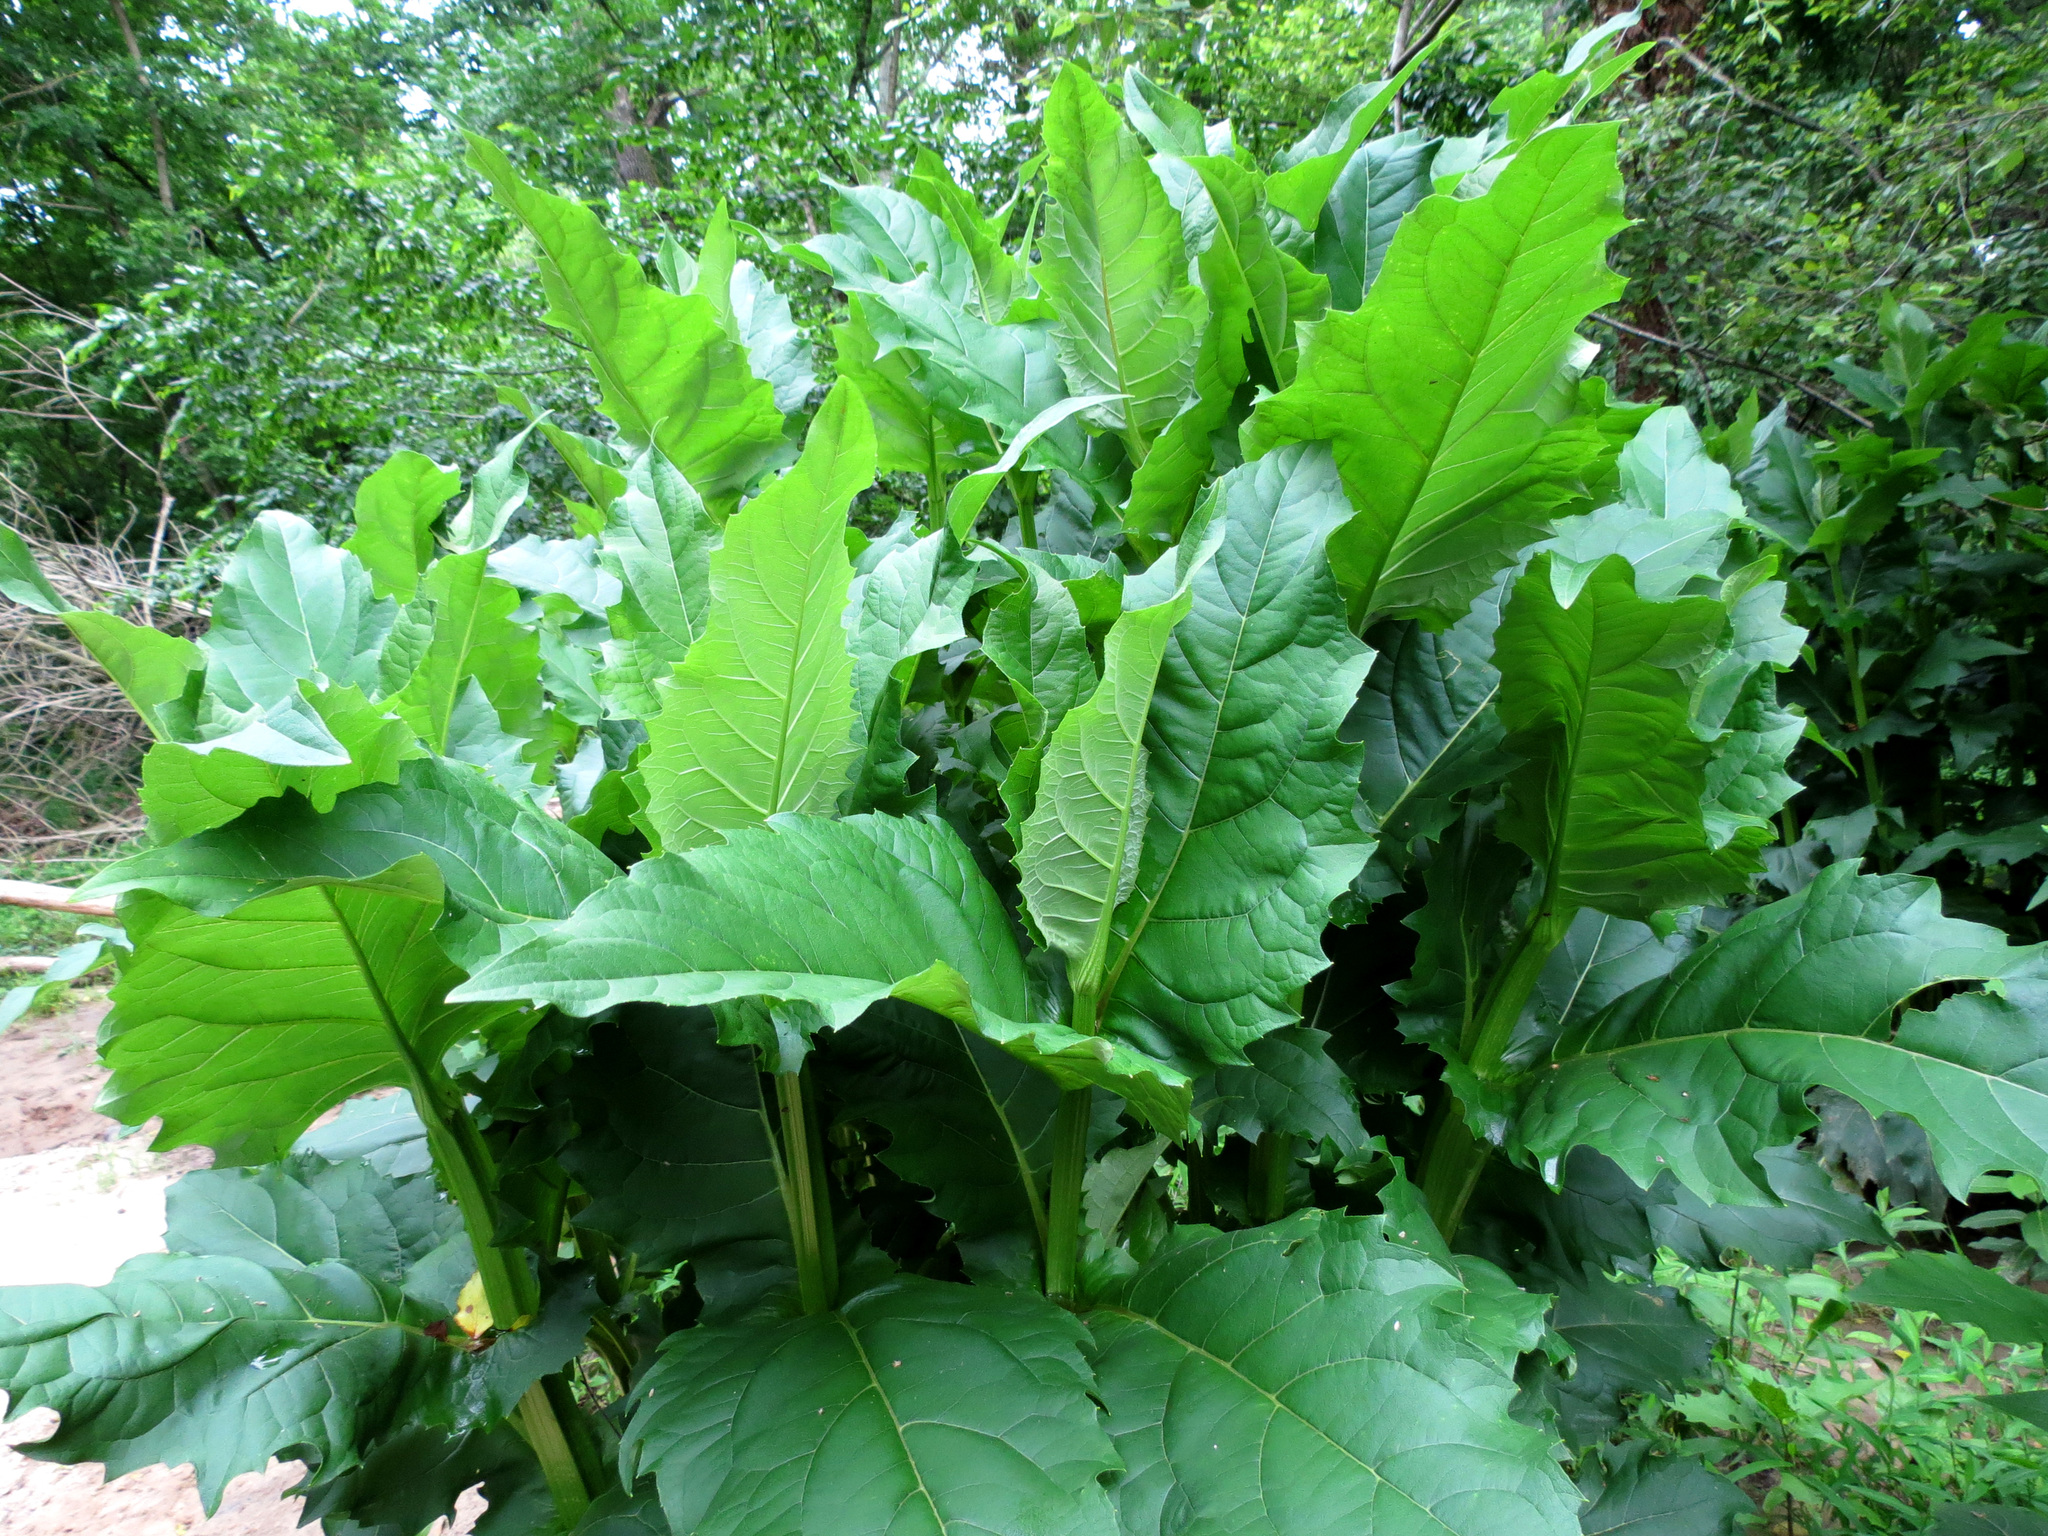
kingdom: Plantae
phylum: Tracheophyta
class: Magnoliopsida
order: Asterales
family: Asteraceae
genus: Silphium
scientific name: Silphium perfoliatum
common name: Cup-plant
